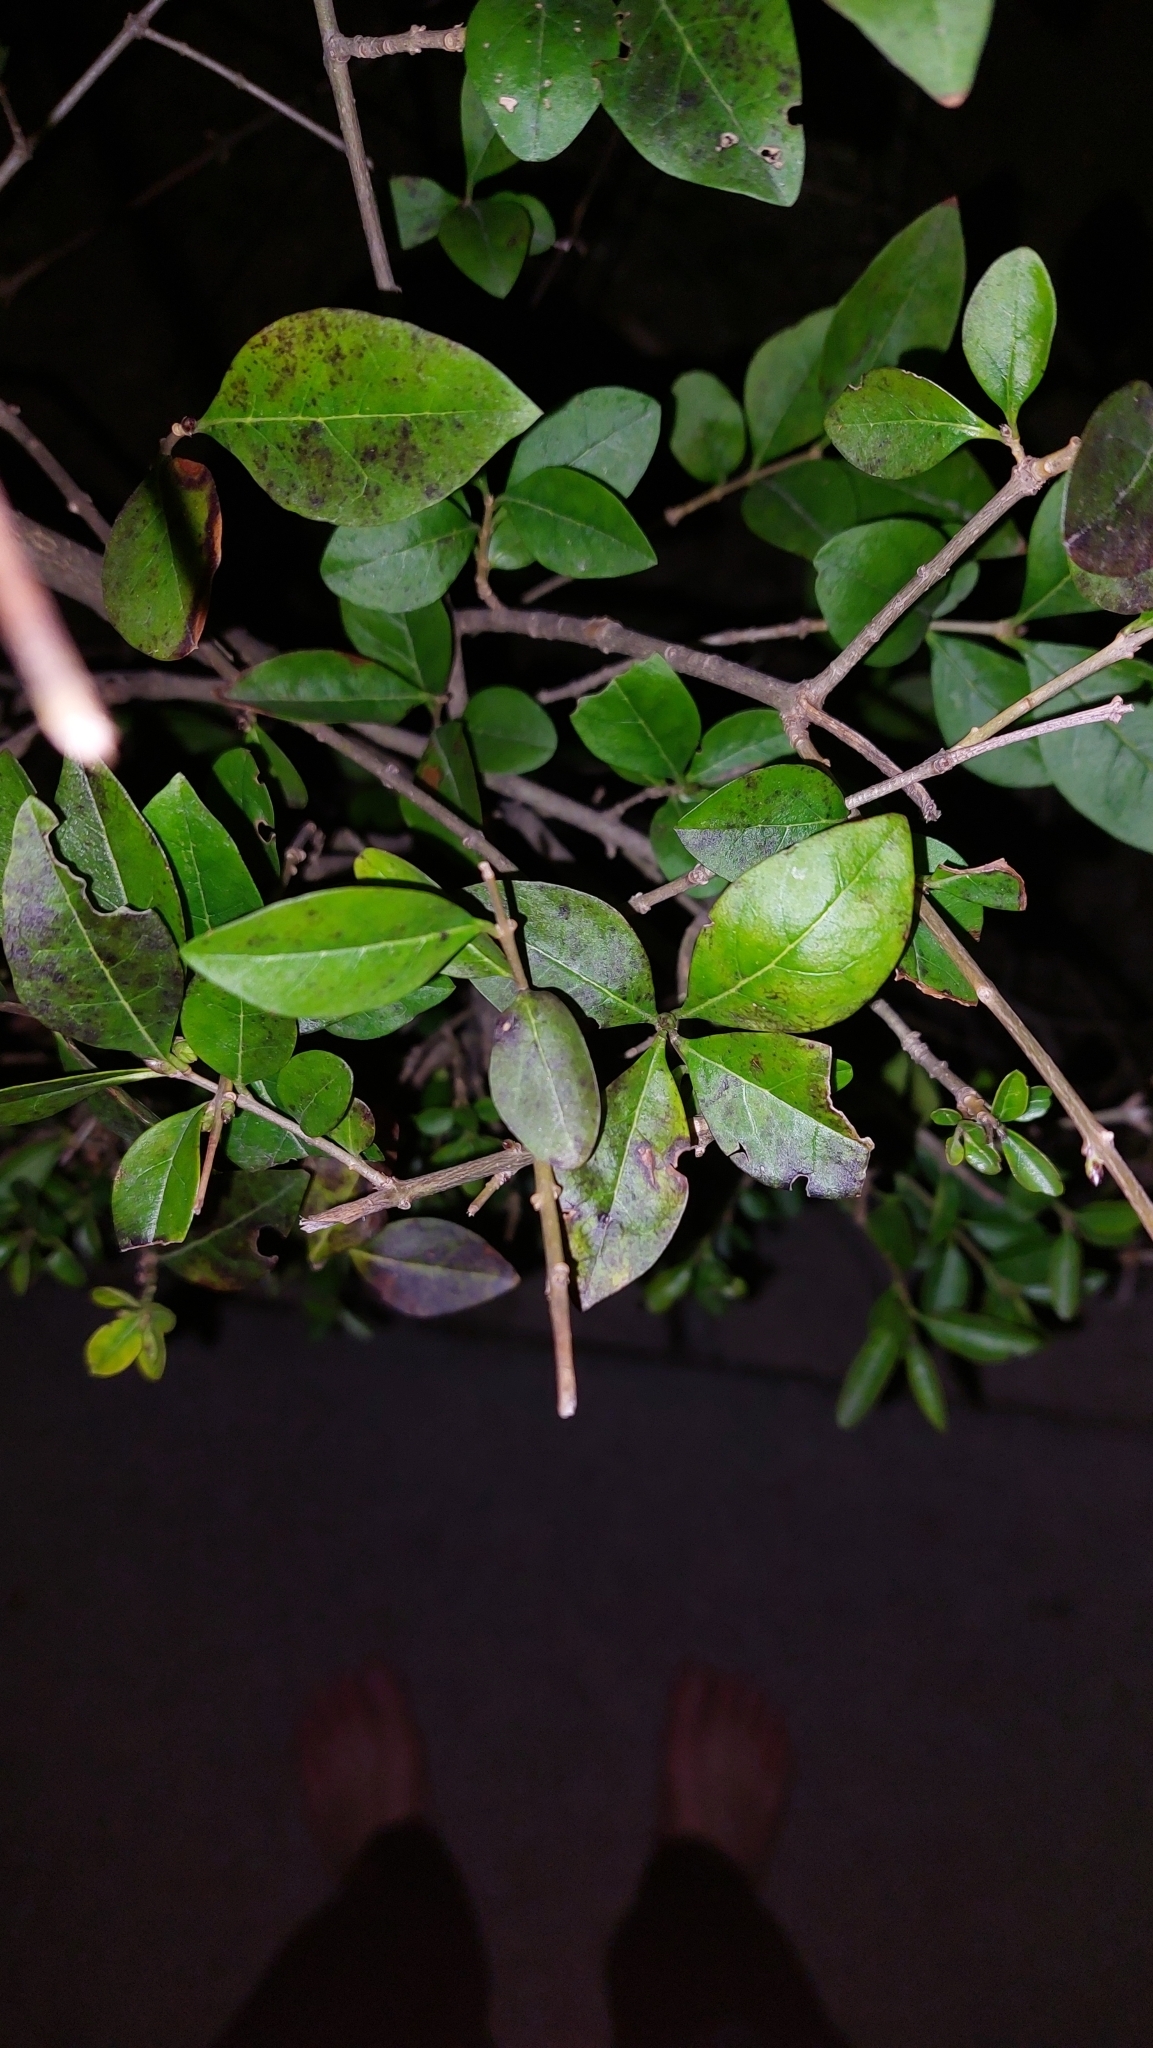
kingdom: Plantae
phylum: Tracheophyta
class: Magnoliopsida
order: Lamiales
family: Oleaceae
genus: Ligustrum
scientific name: Ligustrum vulgare
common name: Wild privet
